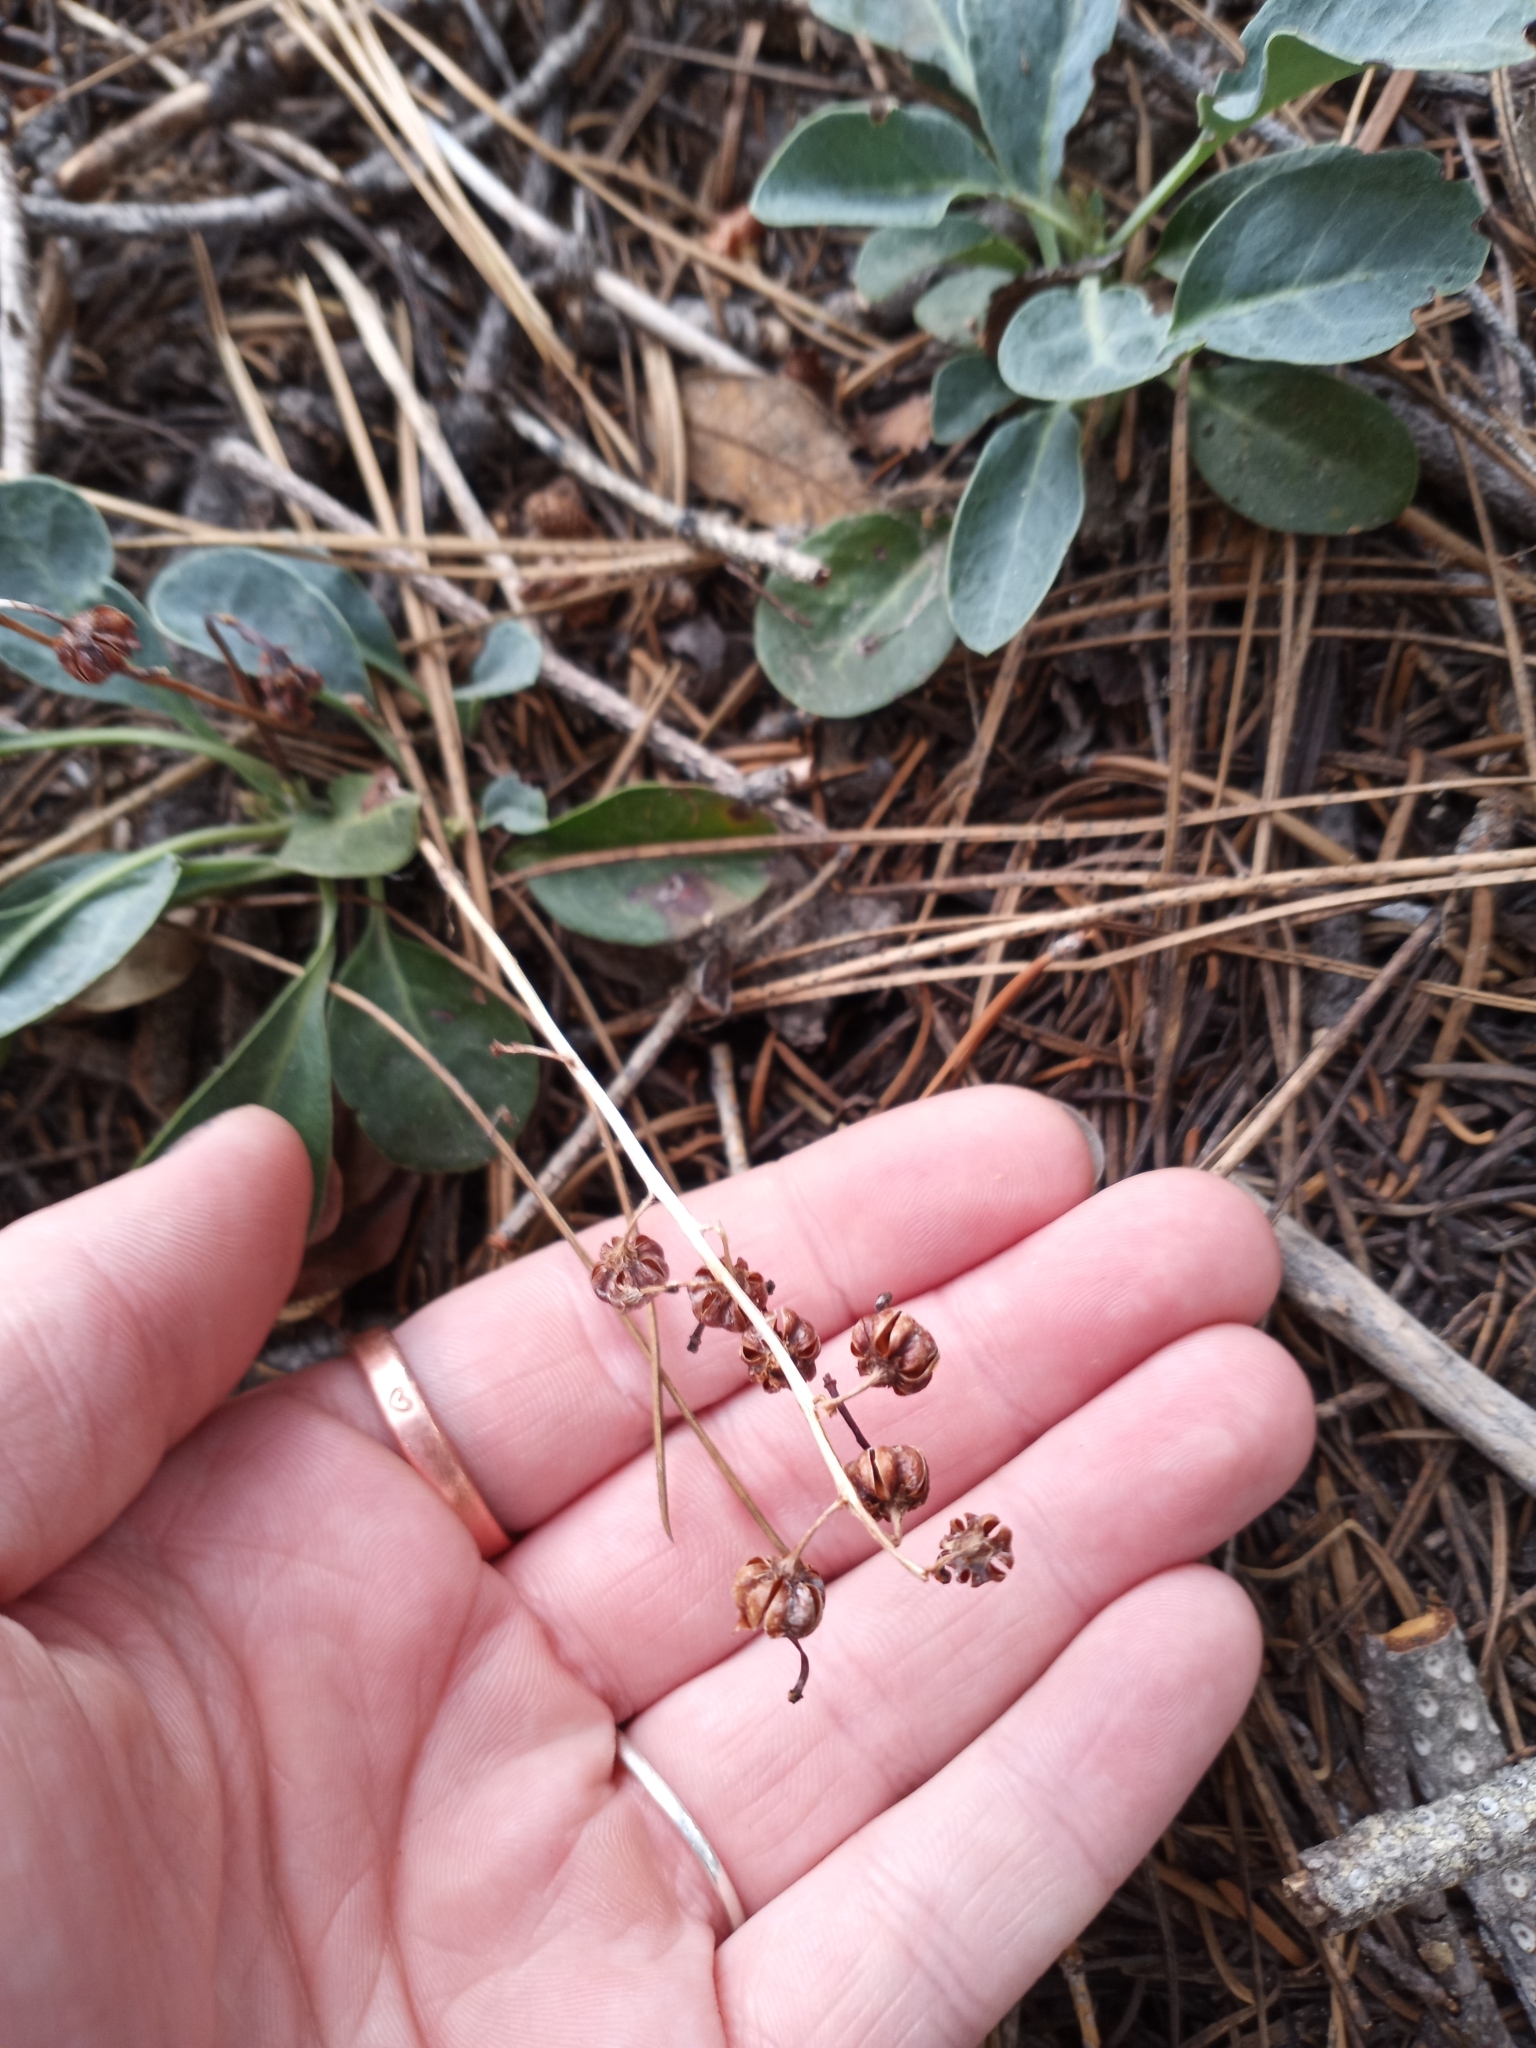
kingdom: Plantae
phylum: Tracheophyta
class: Magnoliopsida
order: Ericales
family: Ericaceae
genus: Pyrola
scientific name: Pyrola dentata
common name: Tooth-leaved wintergreen
